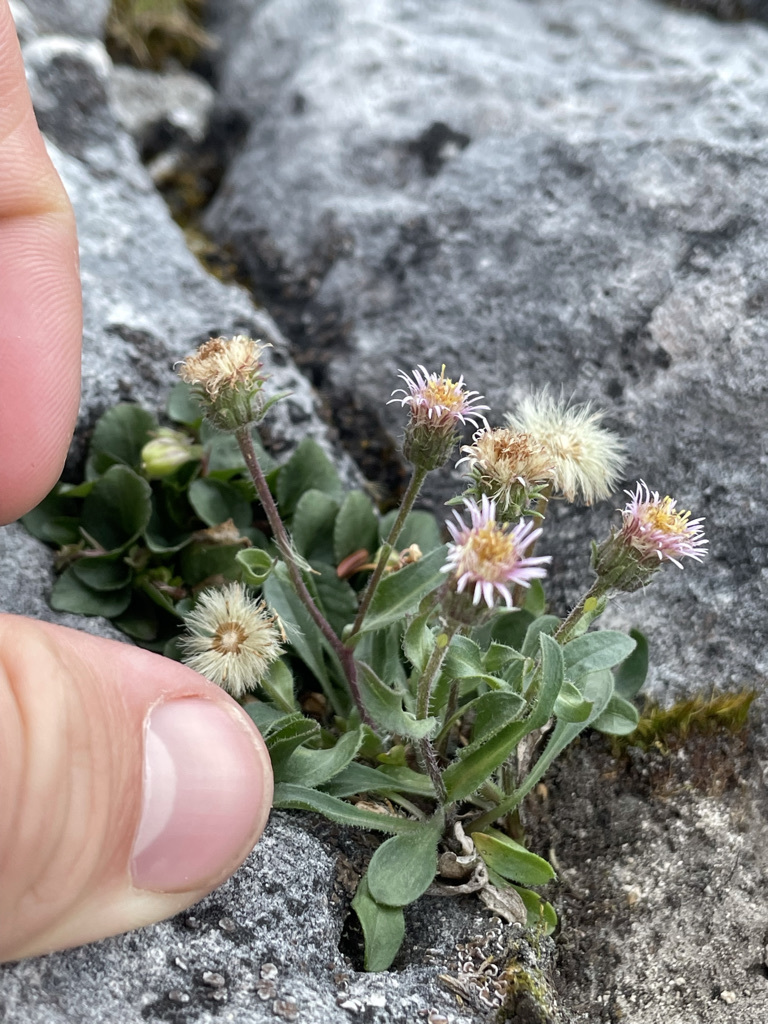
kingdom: Plantae
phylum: Tracheophyta
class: Magnoliopsida
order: Asterales
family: Asteraceae
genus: Erigeron
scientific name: Erigeron nivalis
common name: Snow fleabane
